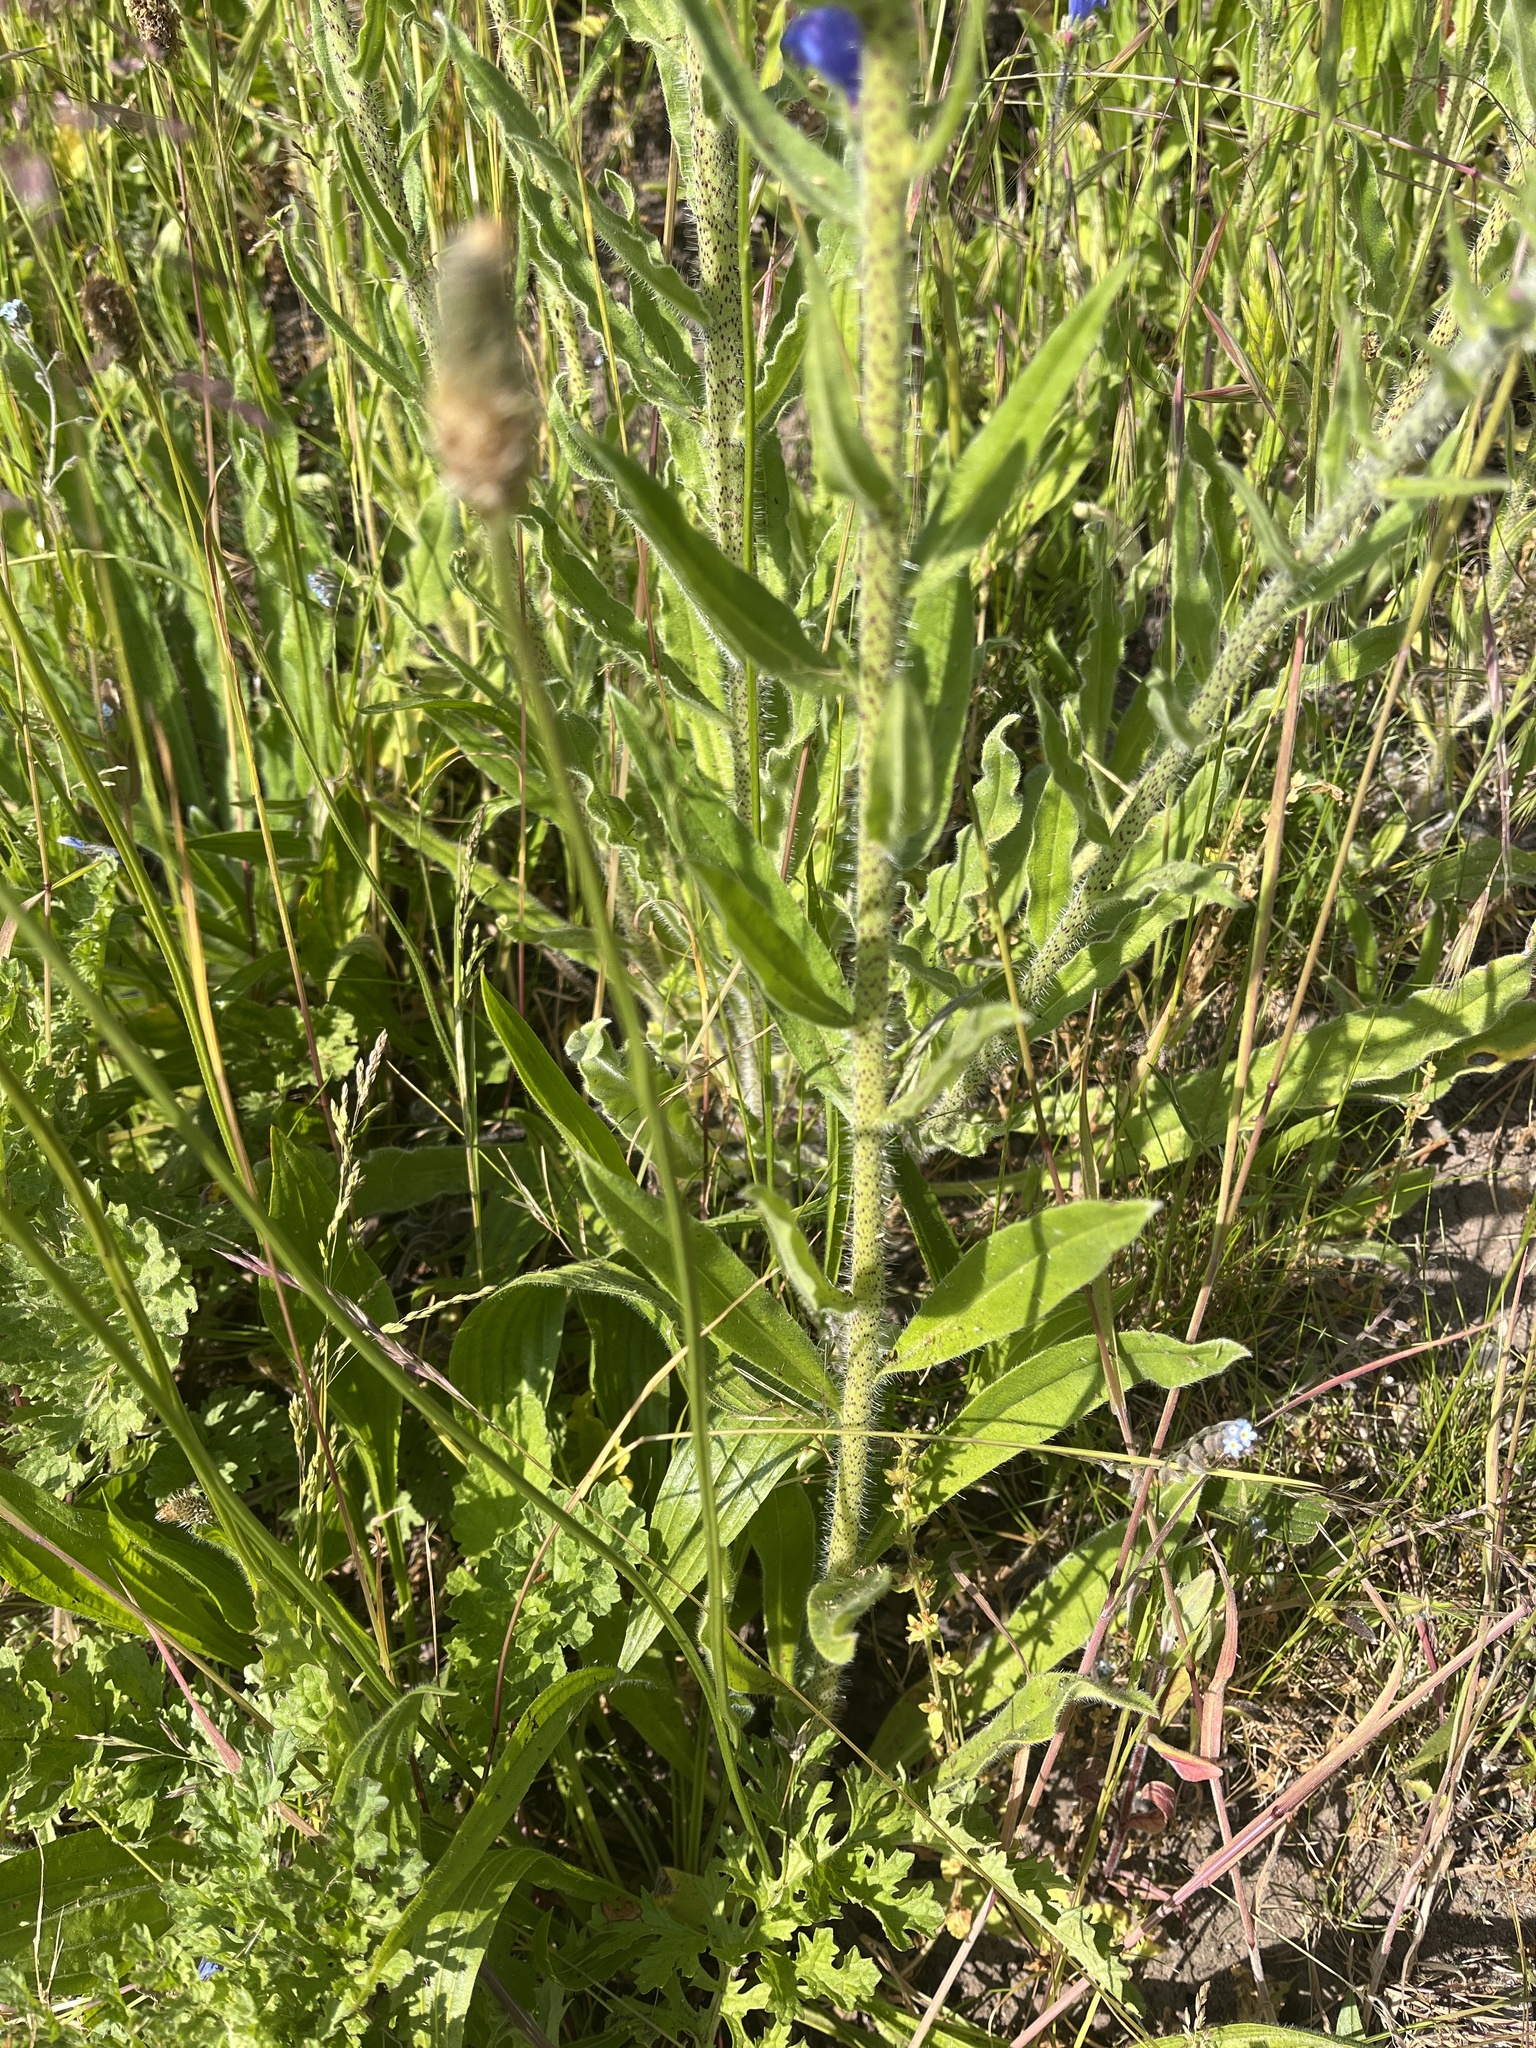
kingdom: Plantae
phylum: Tracheophyta
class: Magnoliopsida
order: Boraginales
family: Boraginaceae
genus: Echium
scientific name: Echium vulgare
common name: Common viper's bugloss
